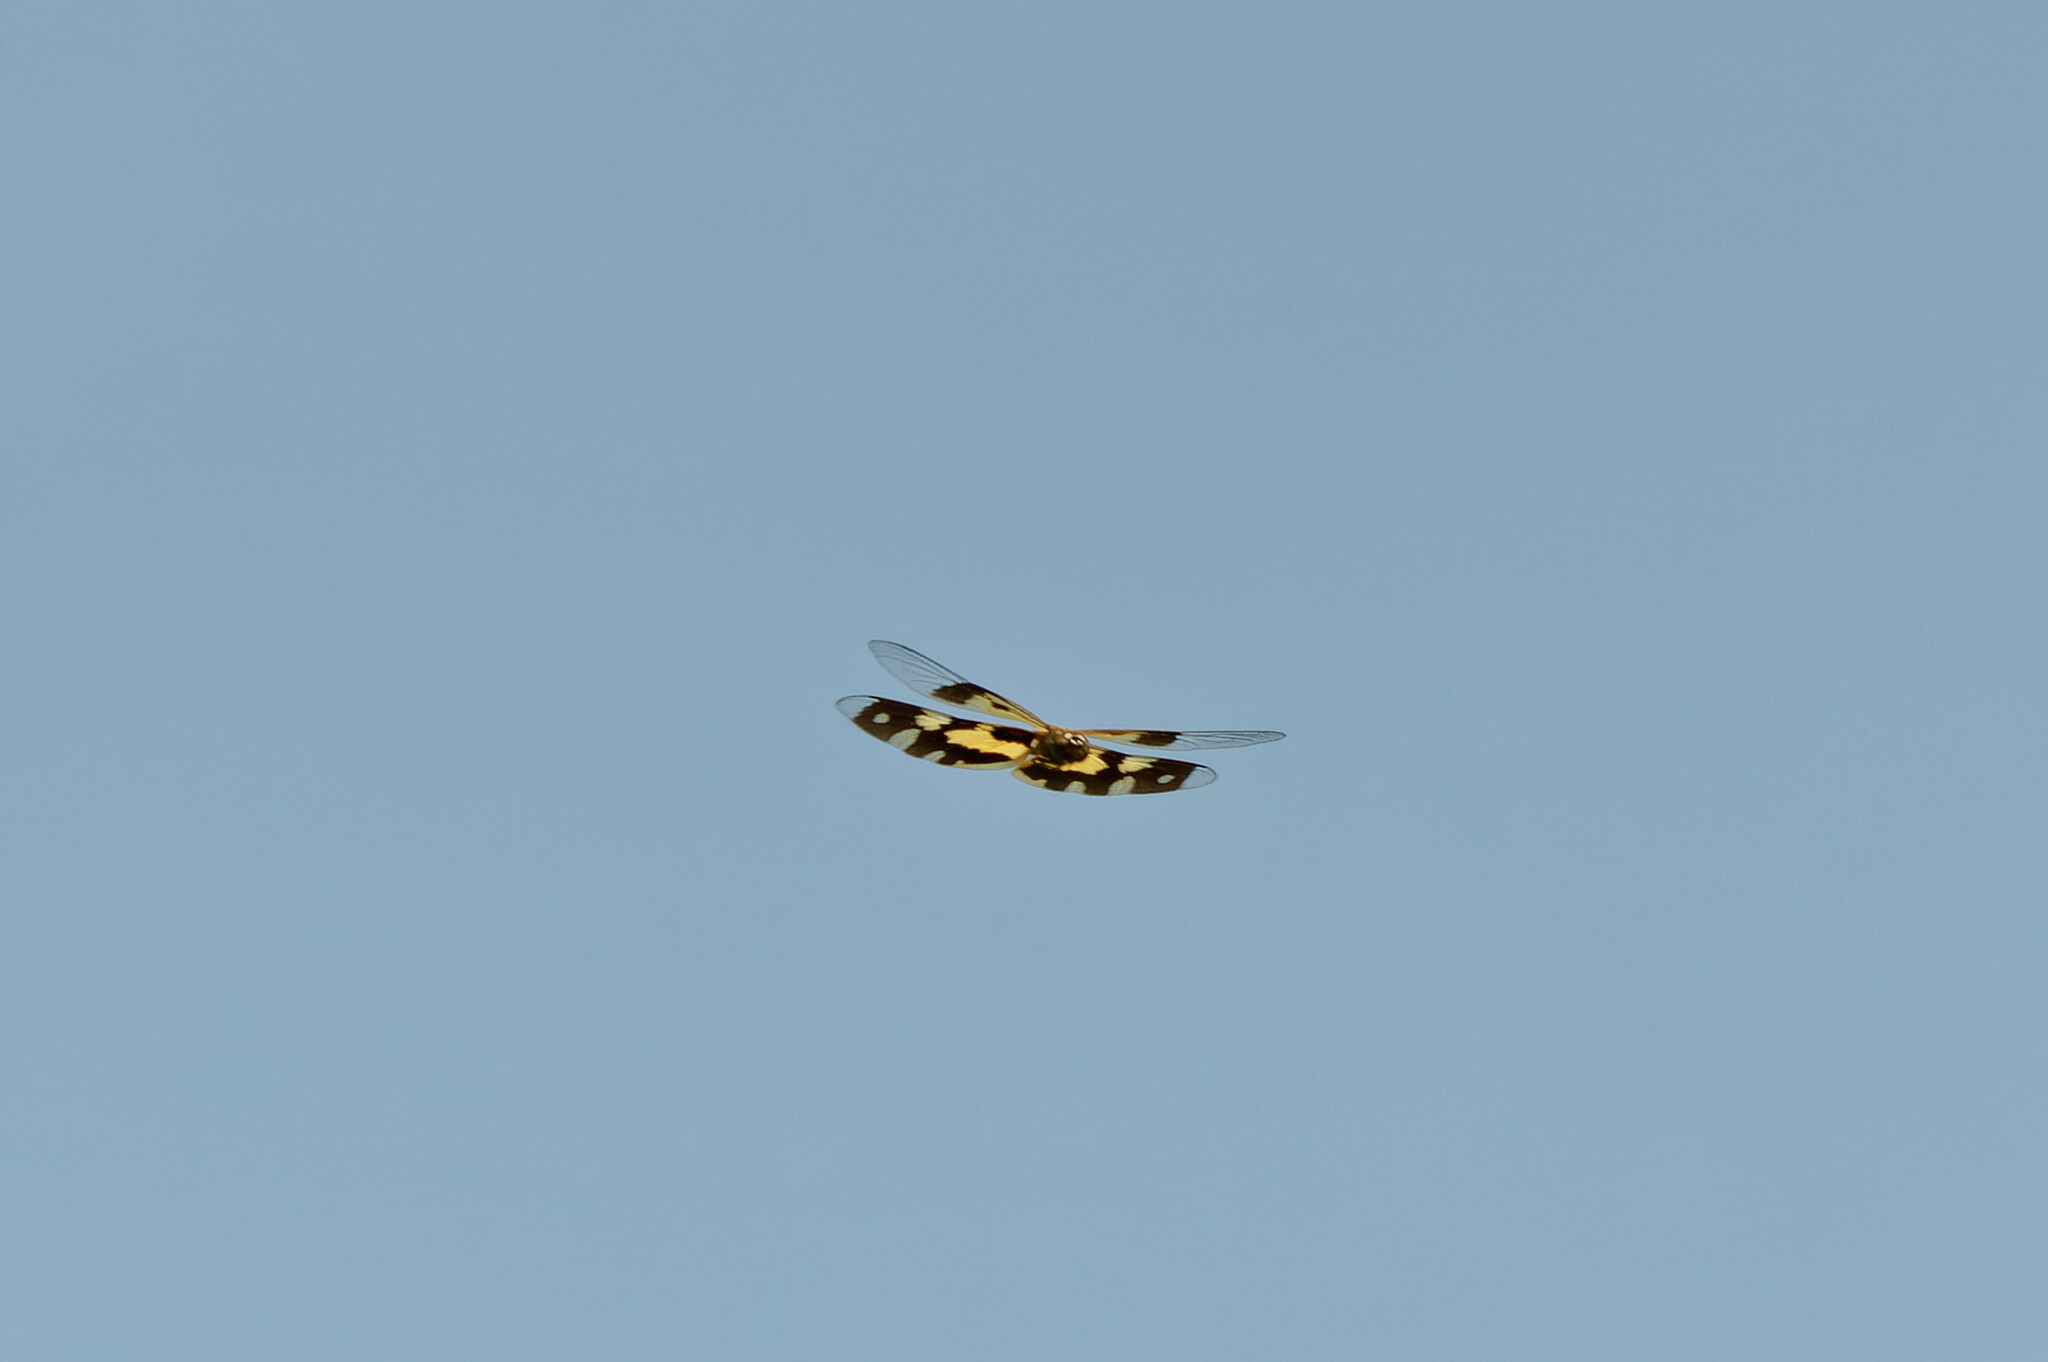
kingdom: Animalia
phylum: Arthropoda
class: Insecta
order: Odonata
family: Libellulidae
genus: Rhyothemis
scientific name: Rhyothemis variegata
